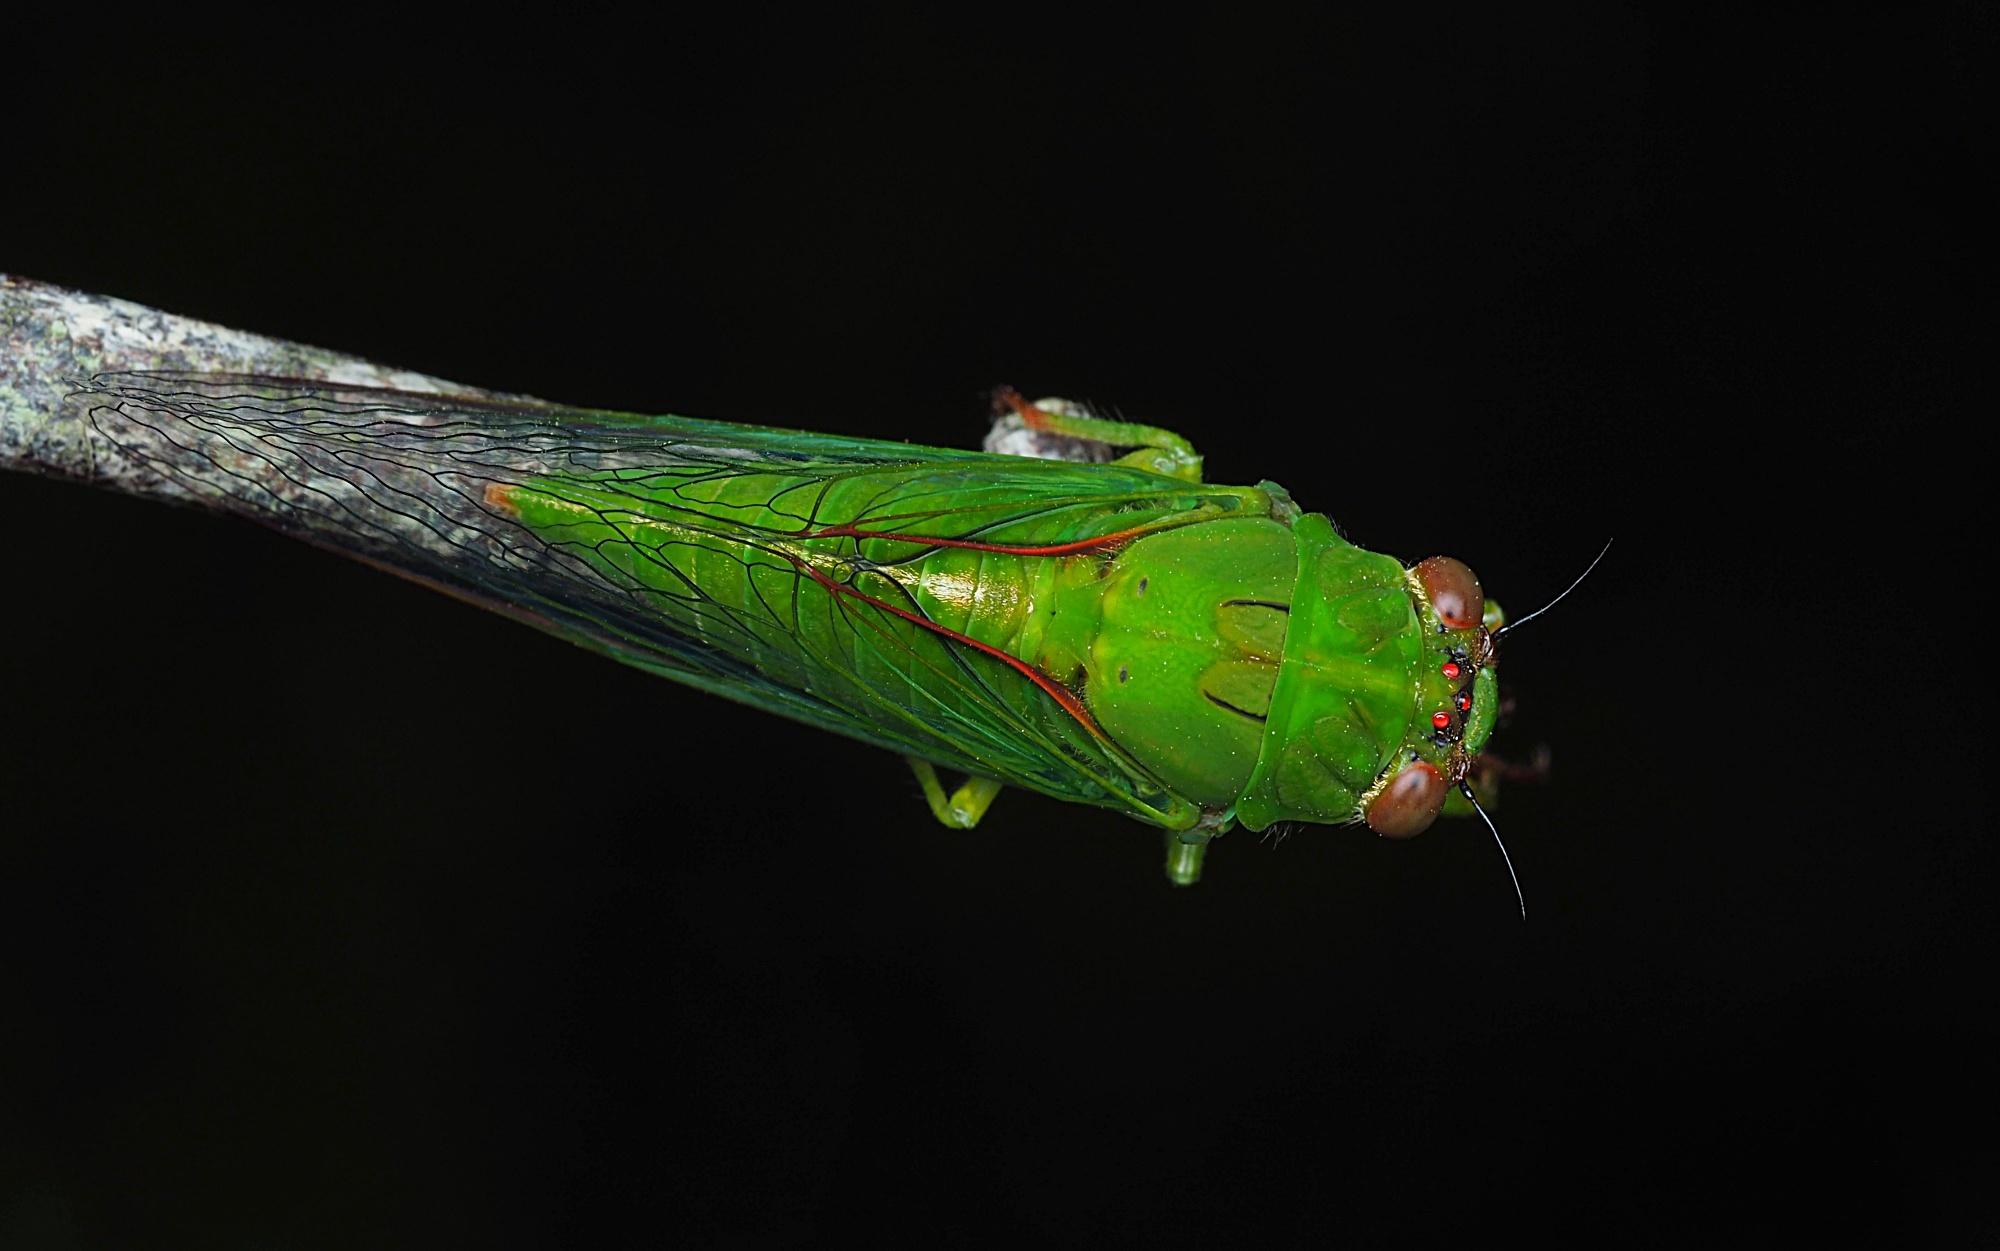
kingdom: Animalia
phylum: Arthropoda
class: Insecta
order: Hemiptera
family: Cicadidae
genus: Kikihia
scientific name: Kikihia dugdalei
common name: Dugdale's cicada
